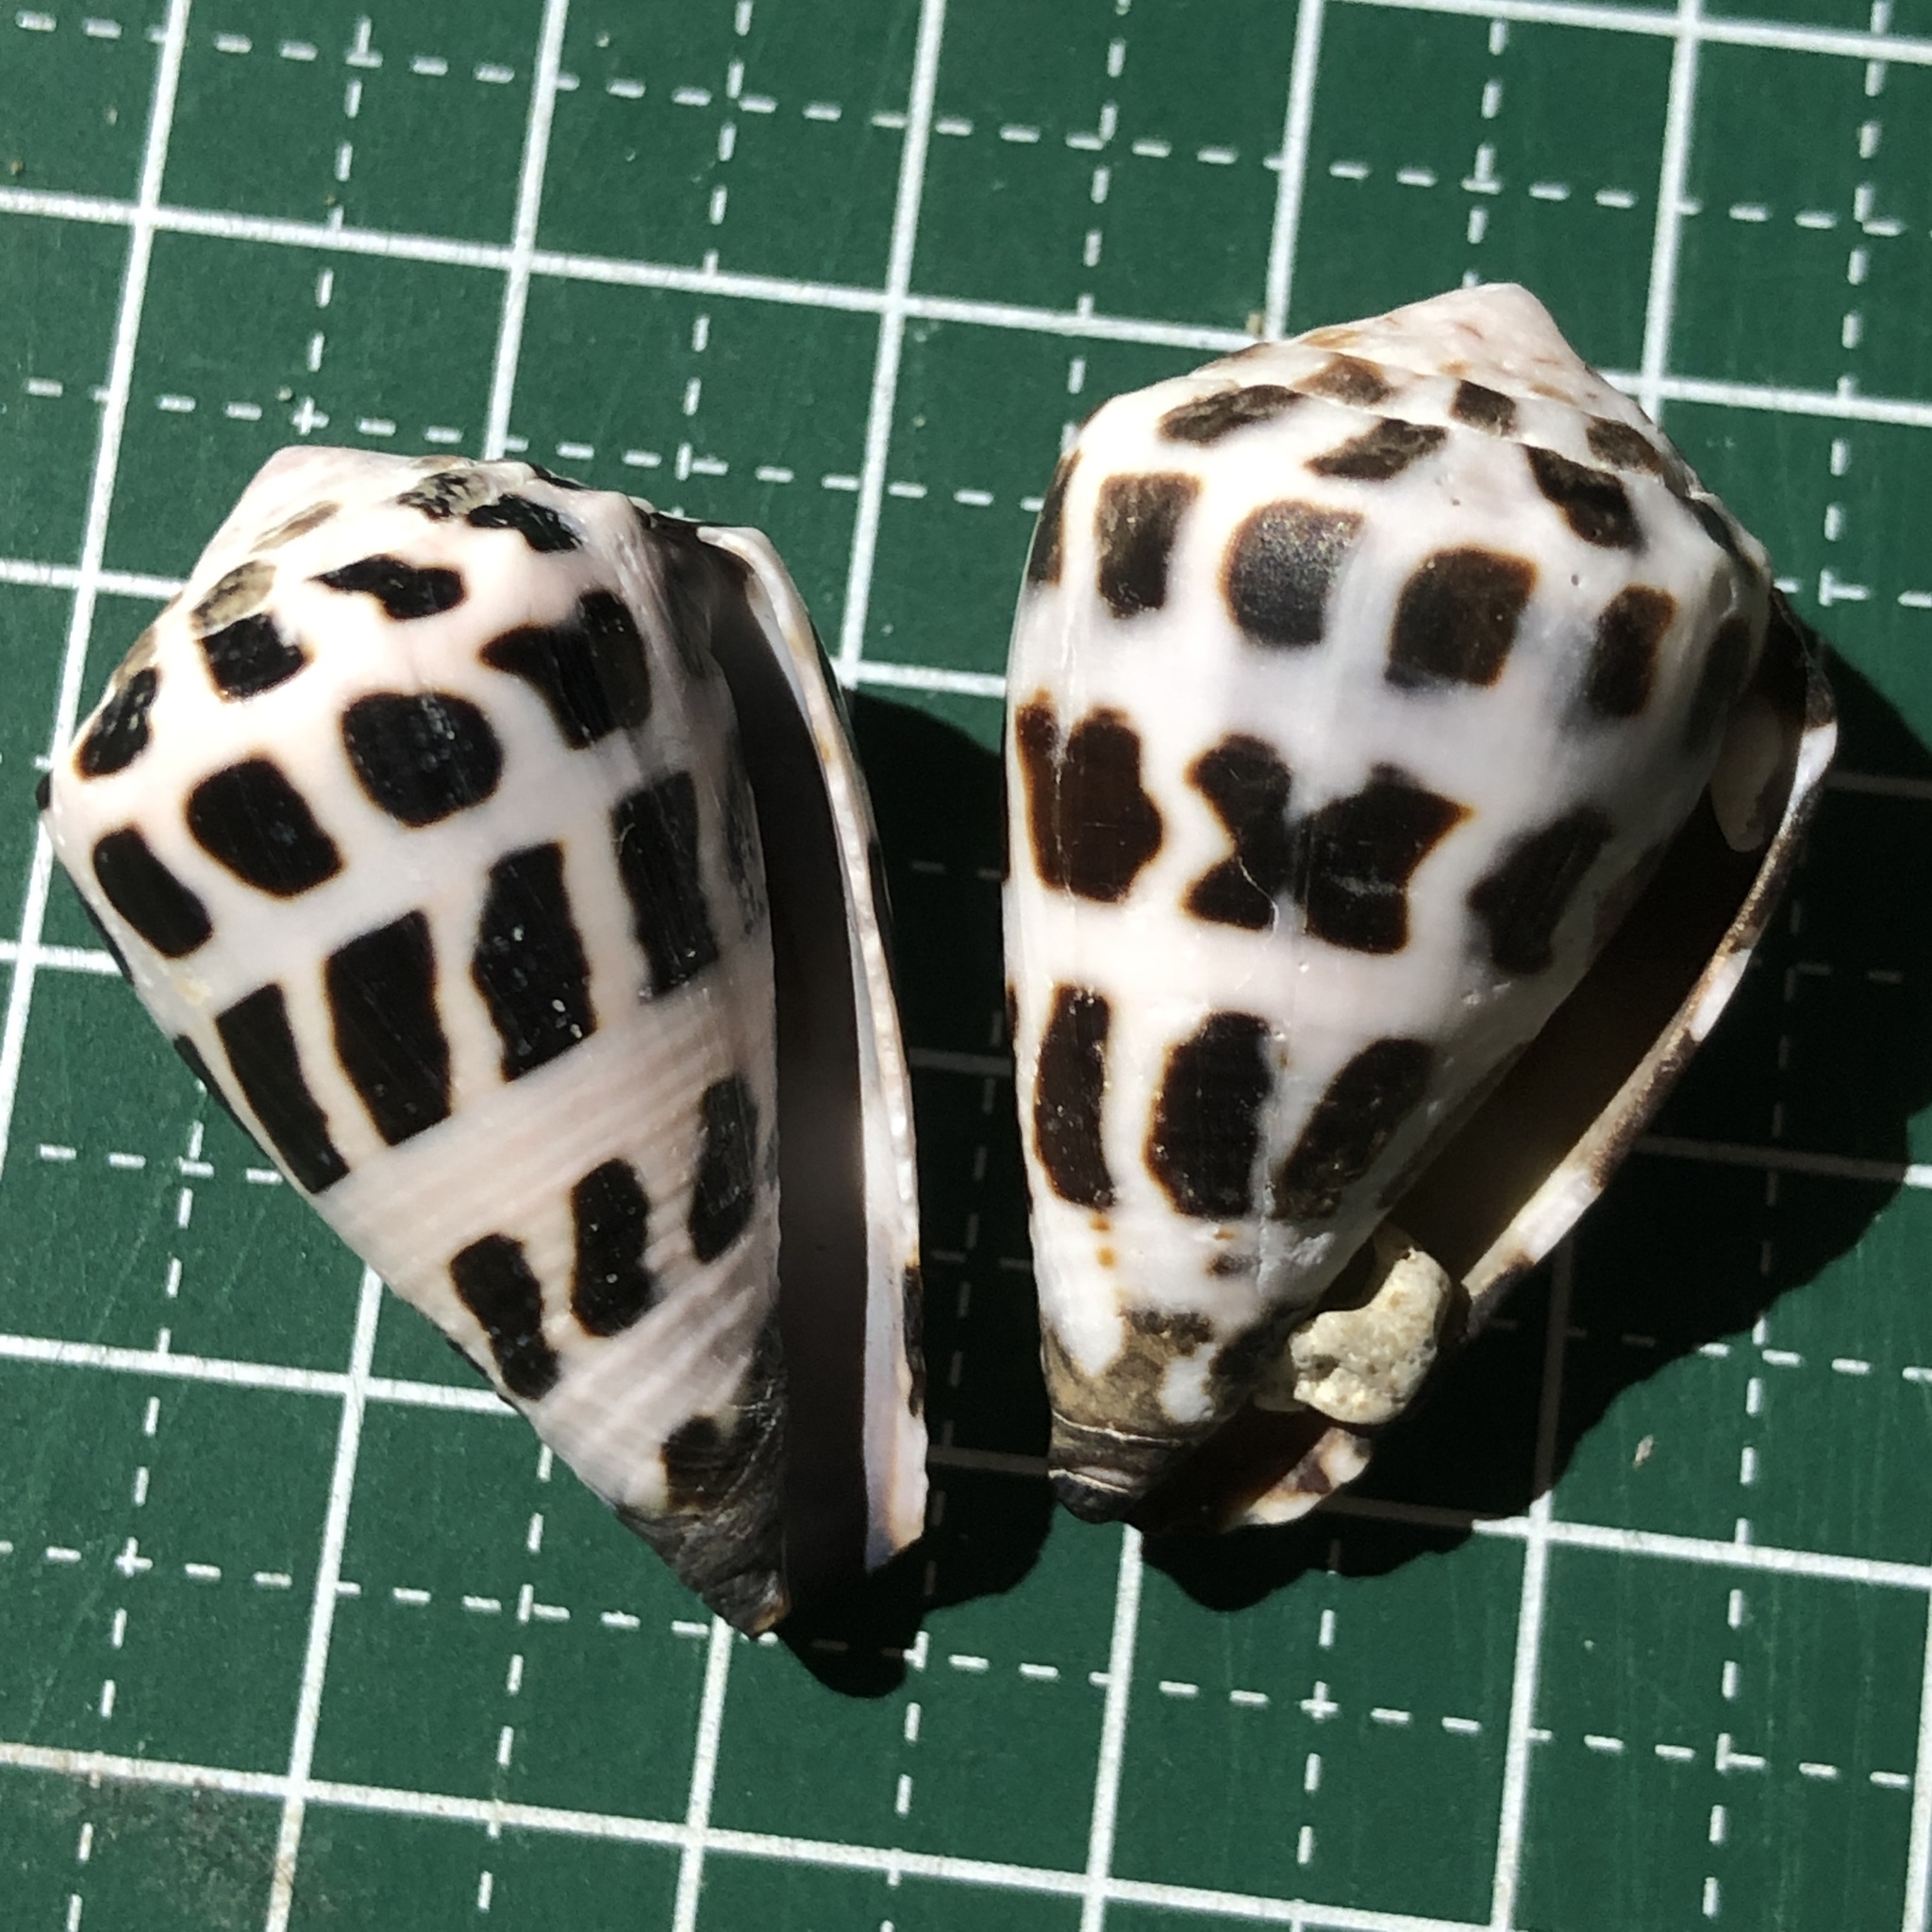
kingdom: Animalia
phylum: Mollusca
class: Gastropoda
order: Neogastropoda
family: Conidae
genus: Conus
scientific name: Conus ebraeus
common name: Hebrew cone
